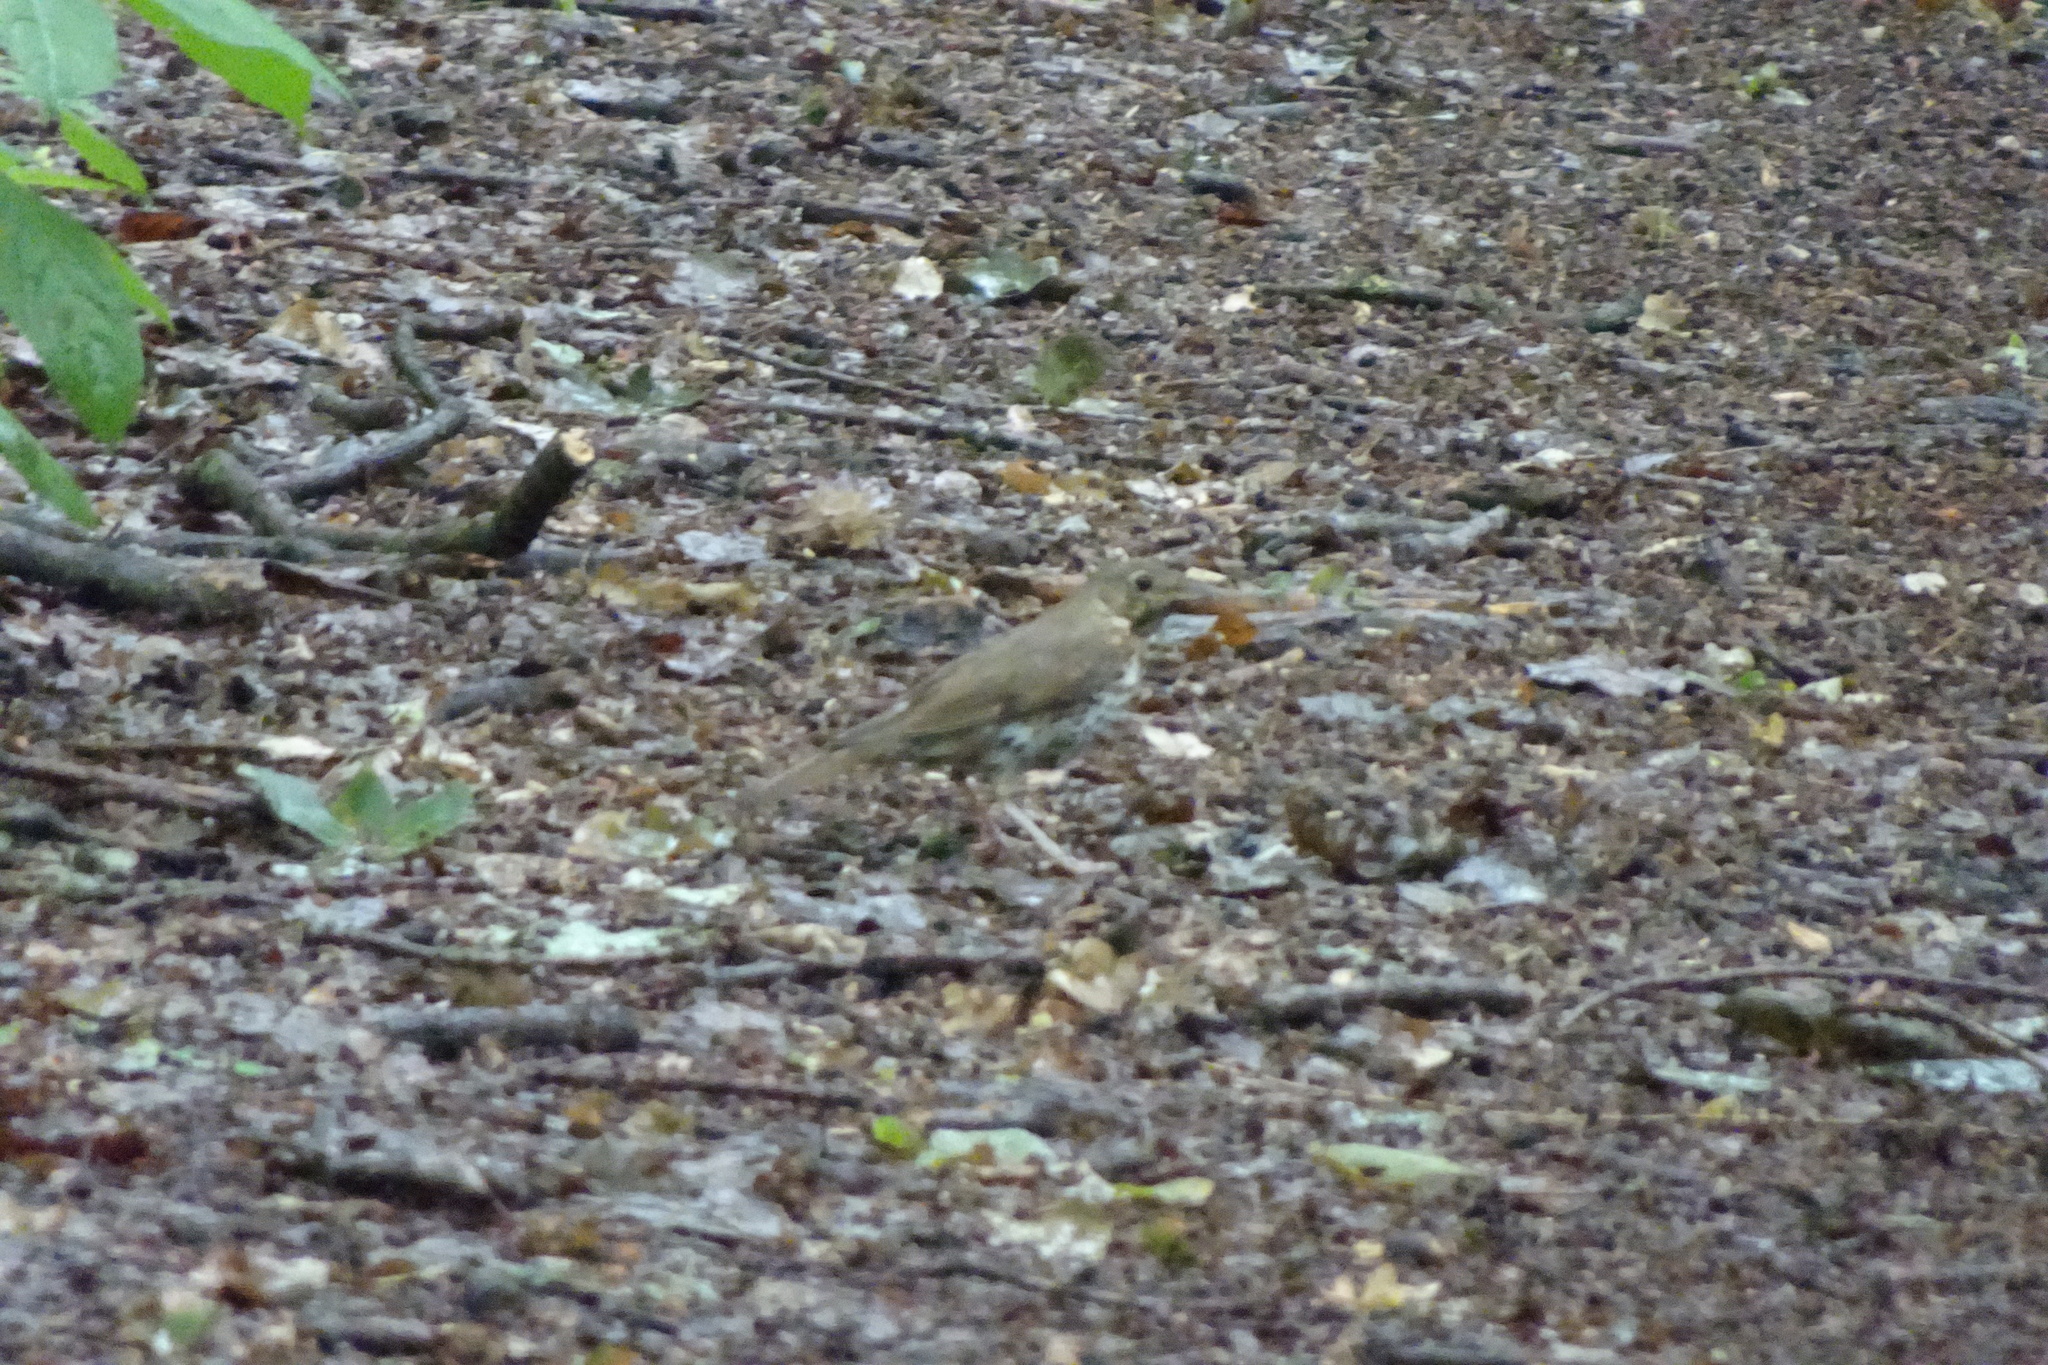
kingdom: Animalia
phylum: Chordata
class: Aves
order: Passeriformes
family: Turdidae
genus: Turdus
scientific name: Turdus philomelos
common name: Song thrush
